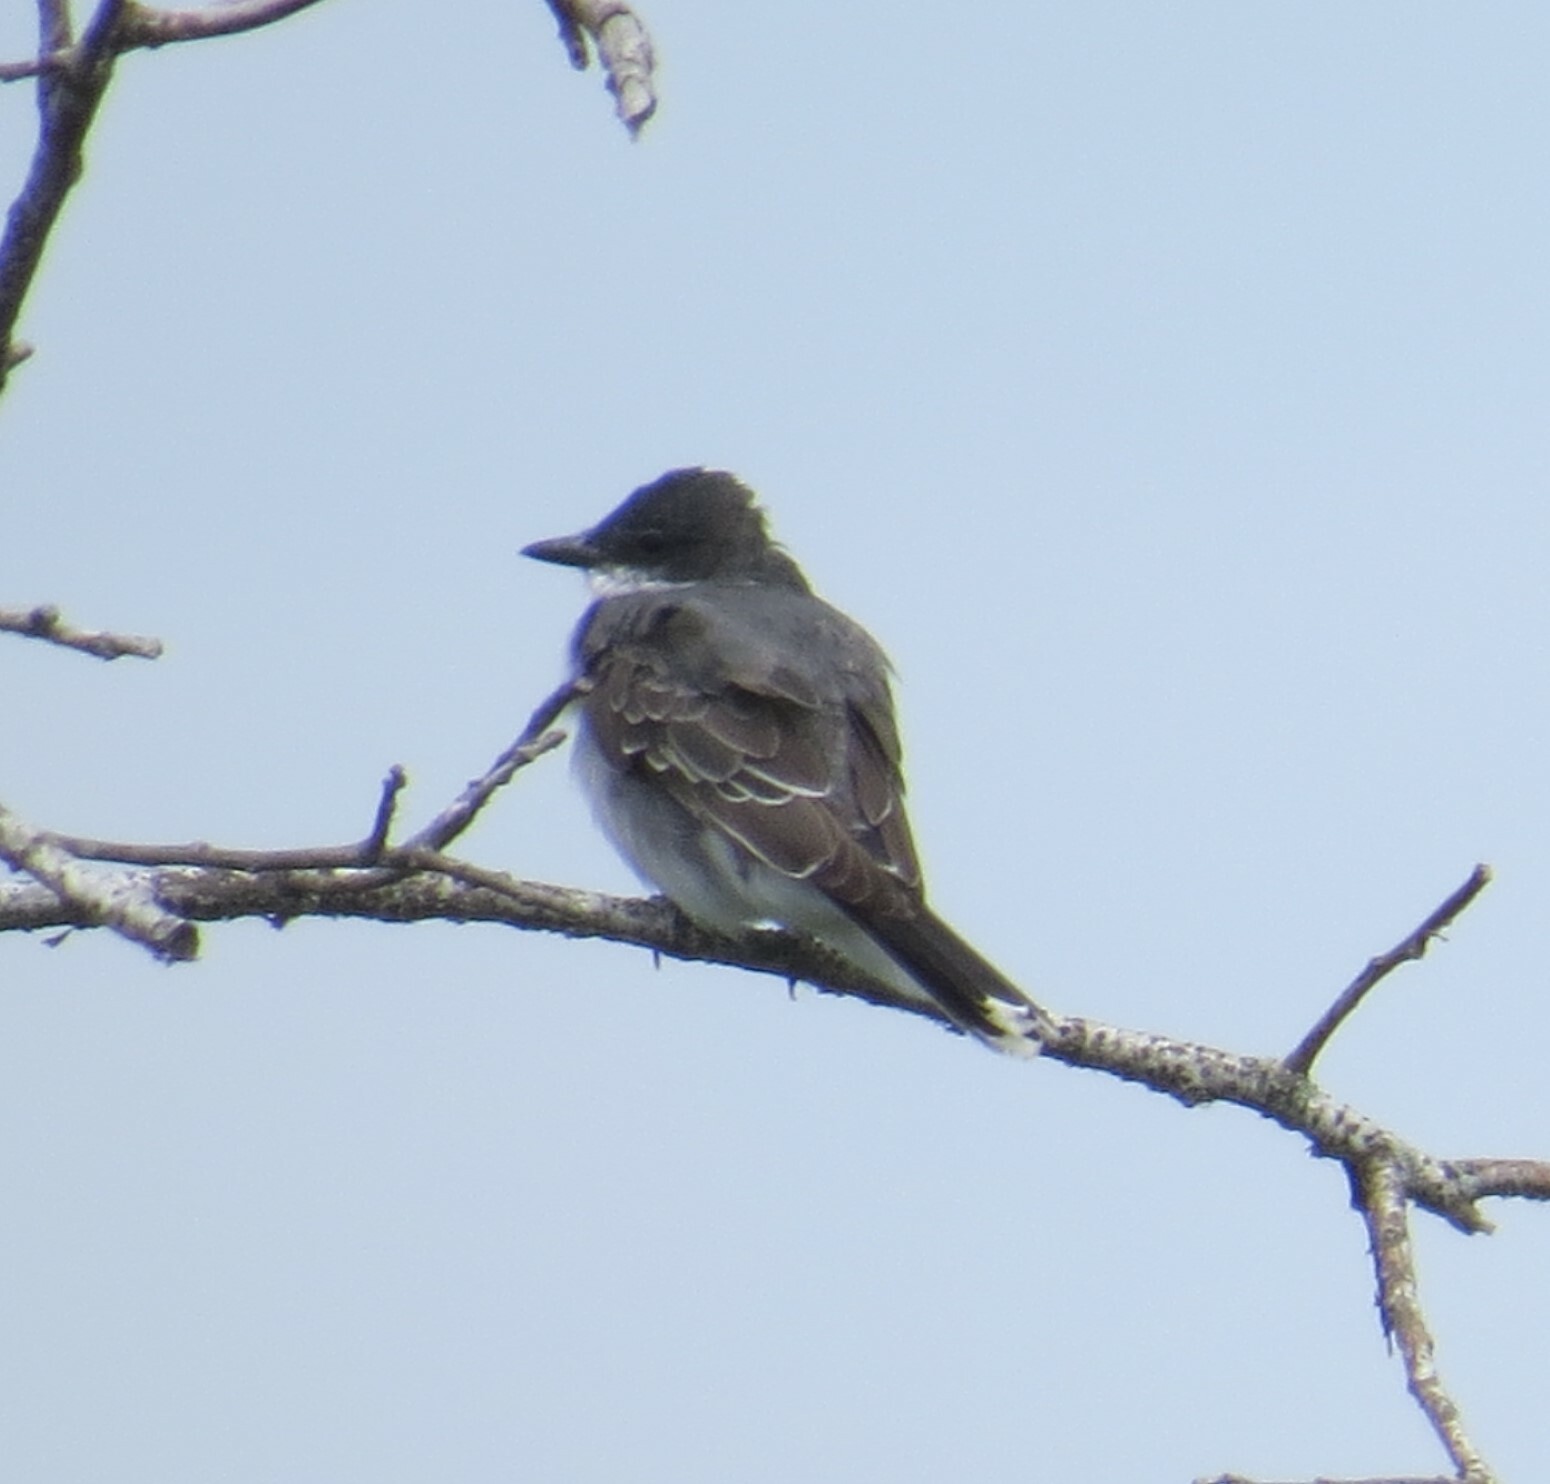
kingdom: Animalia
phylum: Chordata
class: Aves
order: Passeriformes
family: Tyrannidae
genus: Tyrannus
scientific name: Tyrannus tyrannus
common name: Eastern kingbird
